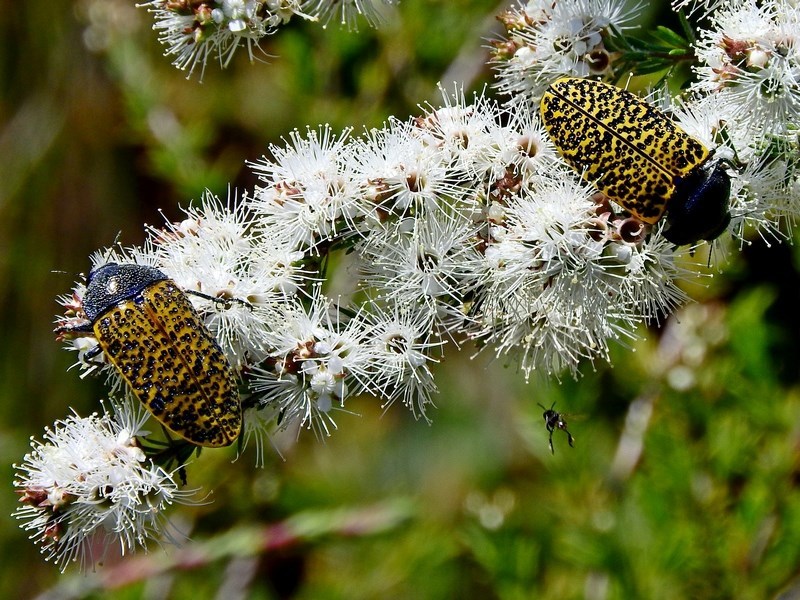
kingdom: Animalia
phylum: Arthropoda
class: Insecta
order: Coleoptera
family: Buprestidae
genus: Stigmodera
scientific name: Stigmodera macularia
